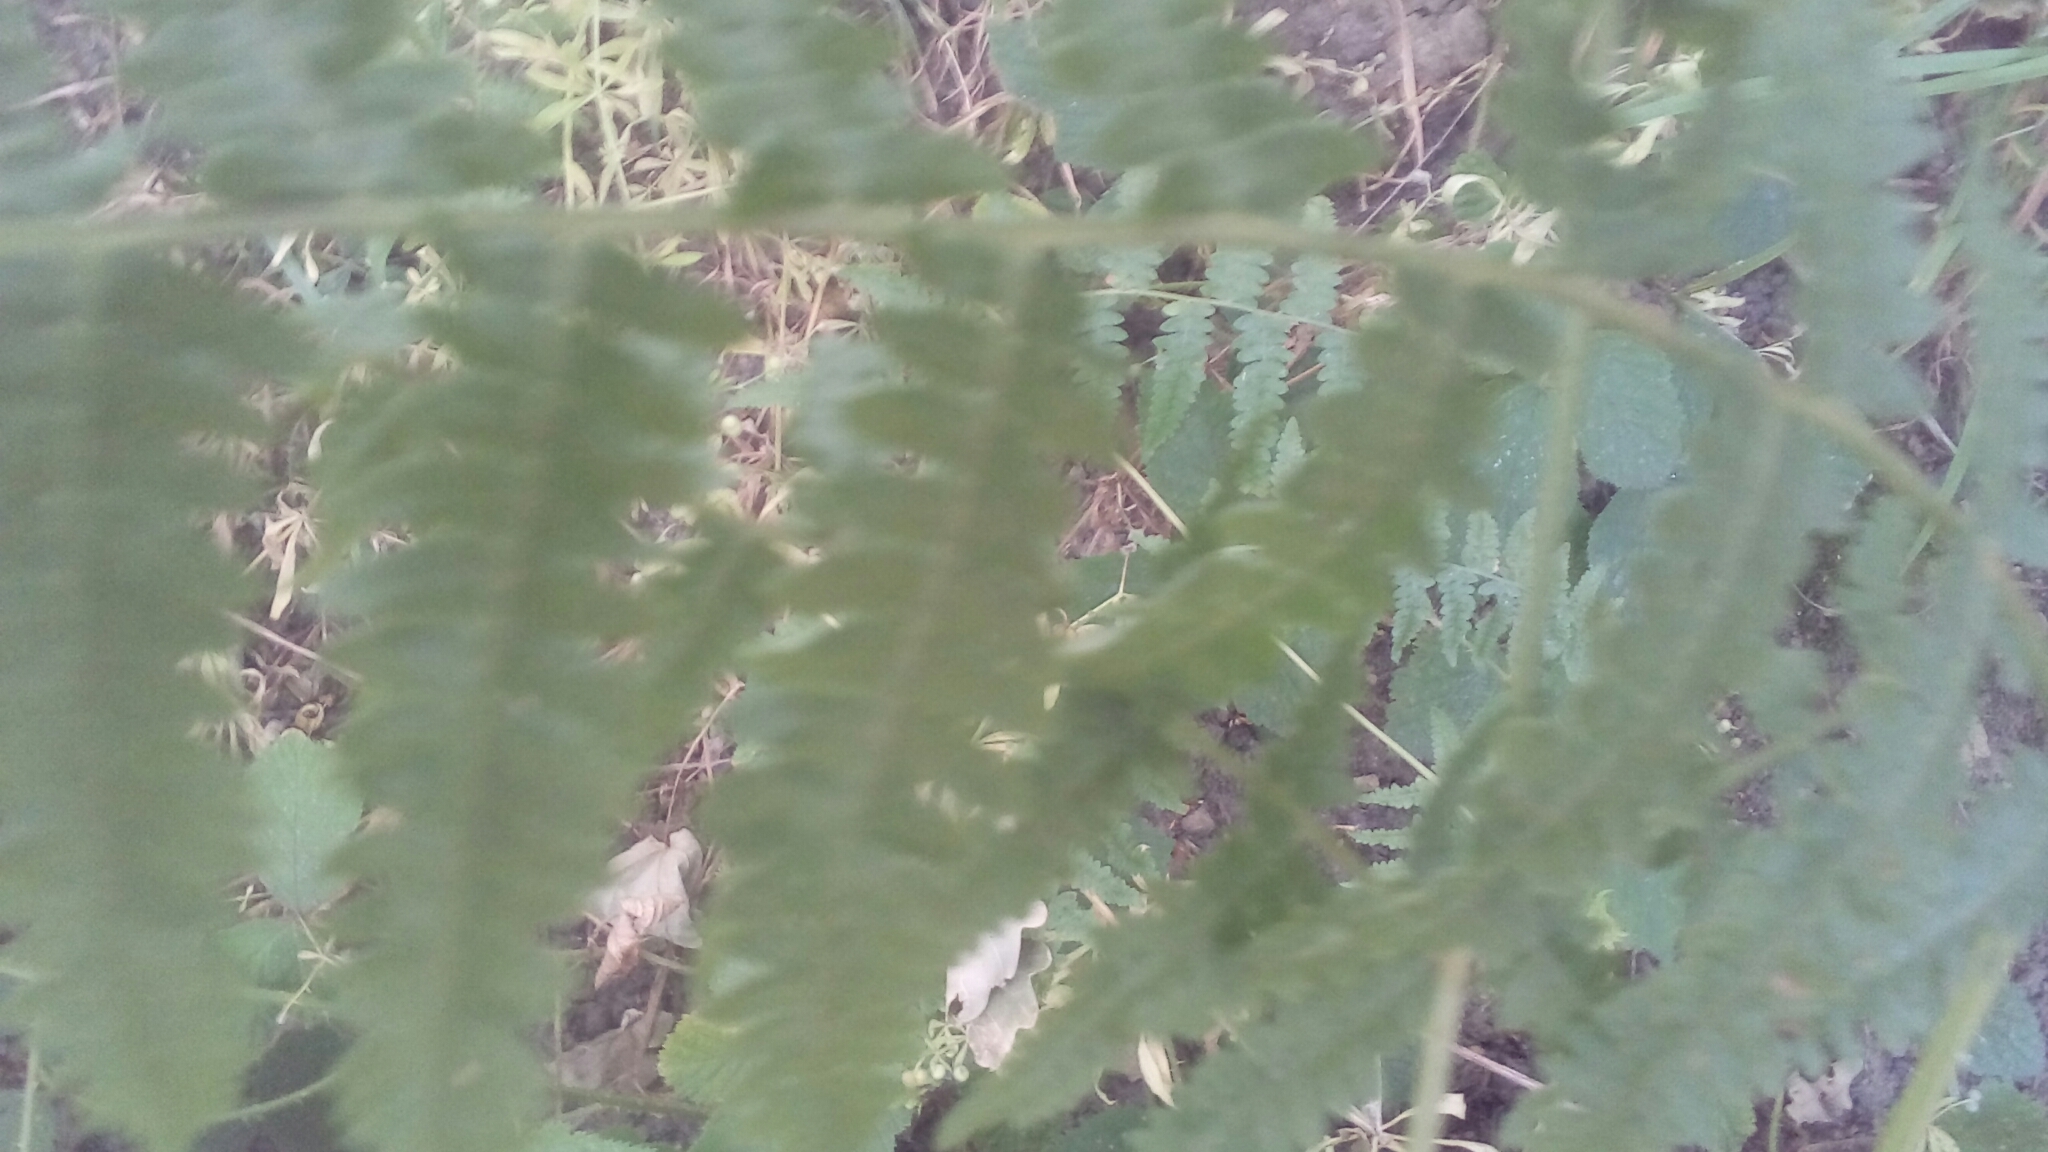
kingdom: Plantae
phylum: Tracheophyta
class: Polypodiopsida
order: Polypodiales
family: Dennstaedtiaceae
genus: Pteridium
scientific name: Pteridium aquilinum
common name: Bracken
